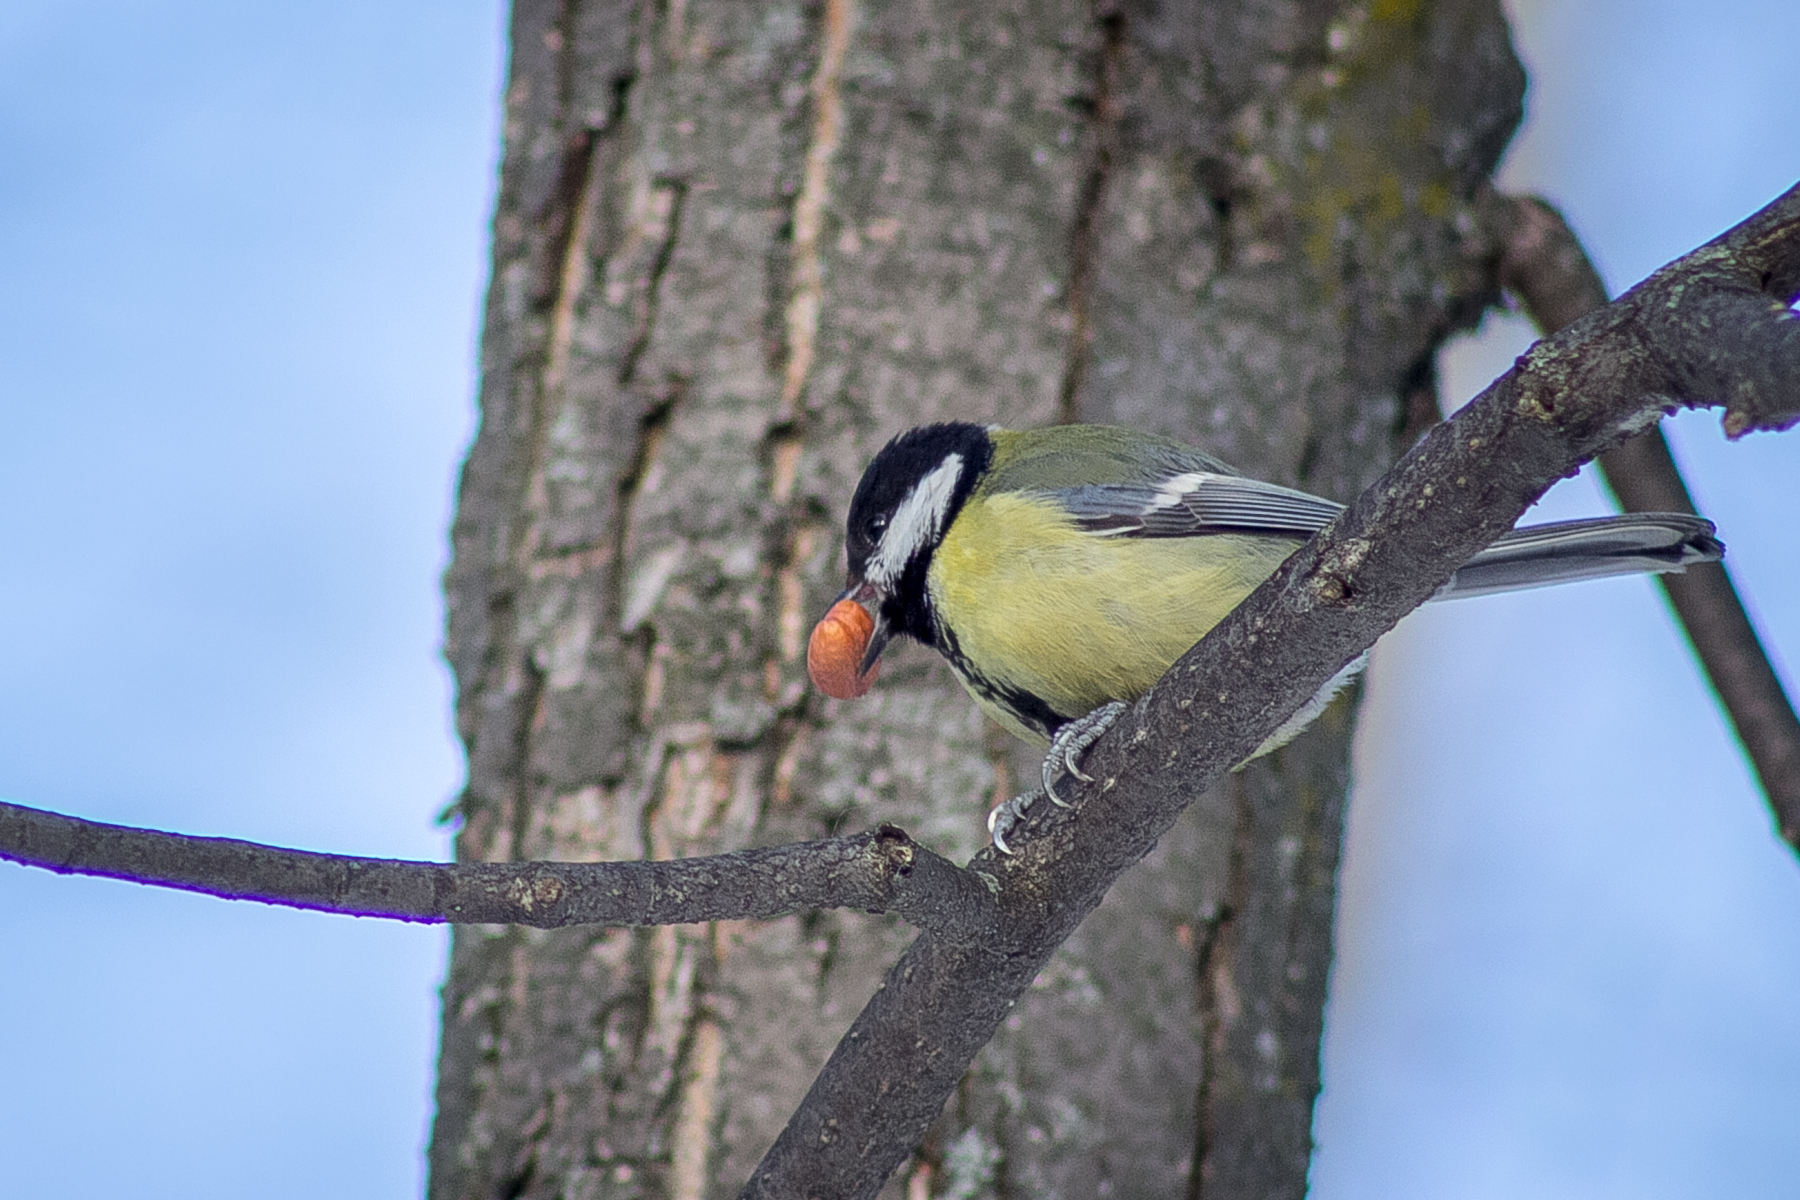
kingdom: Animalia
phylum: Chordata
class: Aves
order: Passeriformes
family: Paridae
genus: Parus
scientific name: Parus major
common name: Great tit
